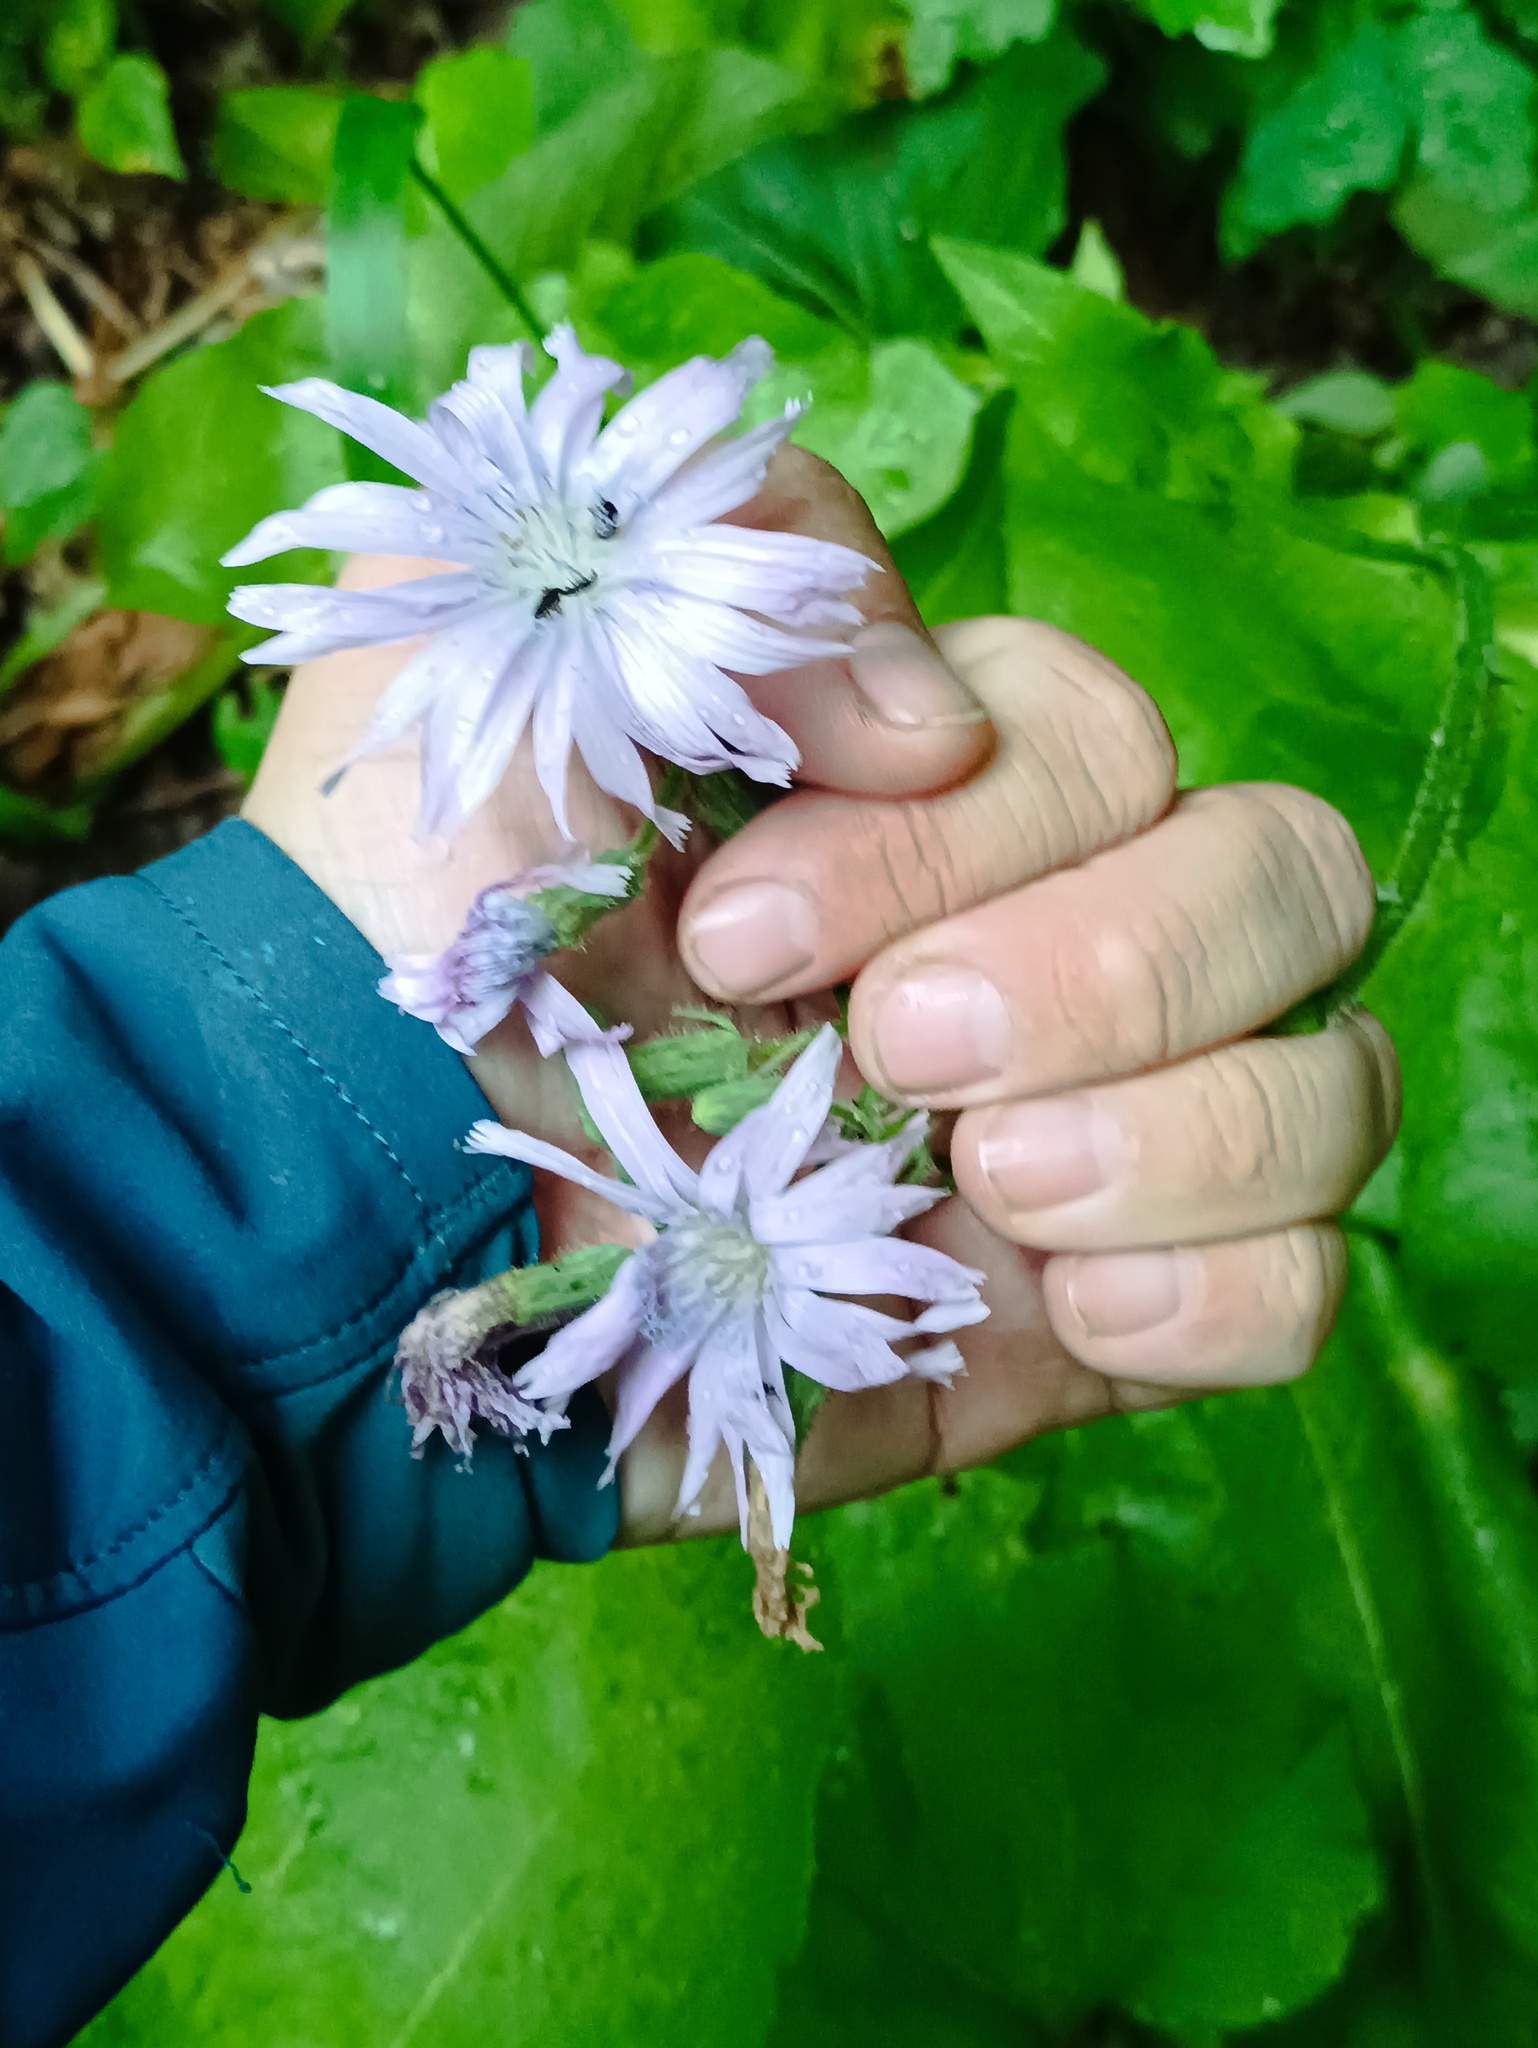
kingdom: Plantae
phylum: Tracheophyta
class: Magnoliopsida
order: Asterales
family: Asteraceae
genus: Lactuca
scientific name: Lactuca macrophylla
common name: Common blue-sow-thistle
